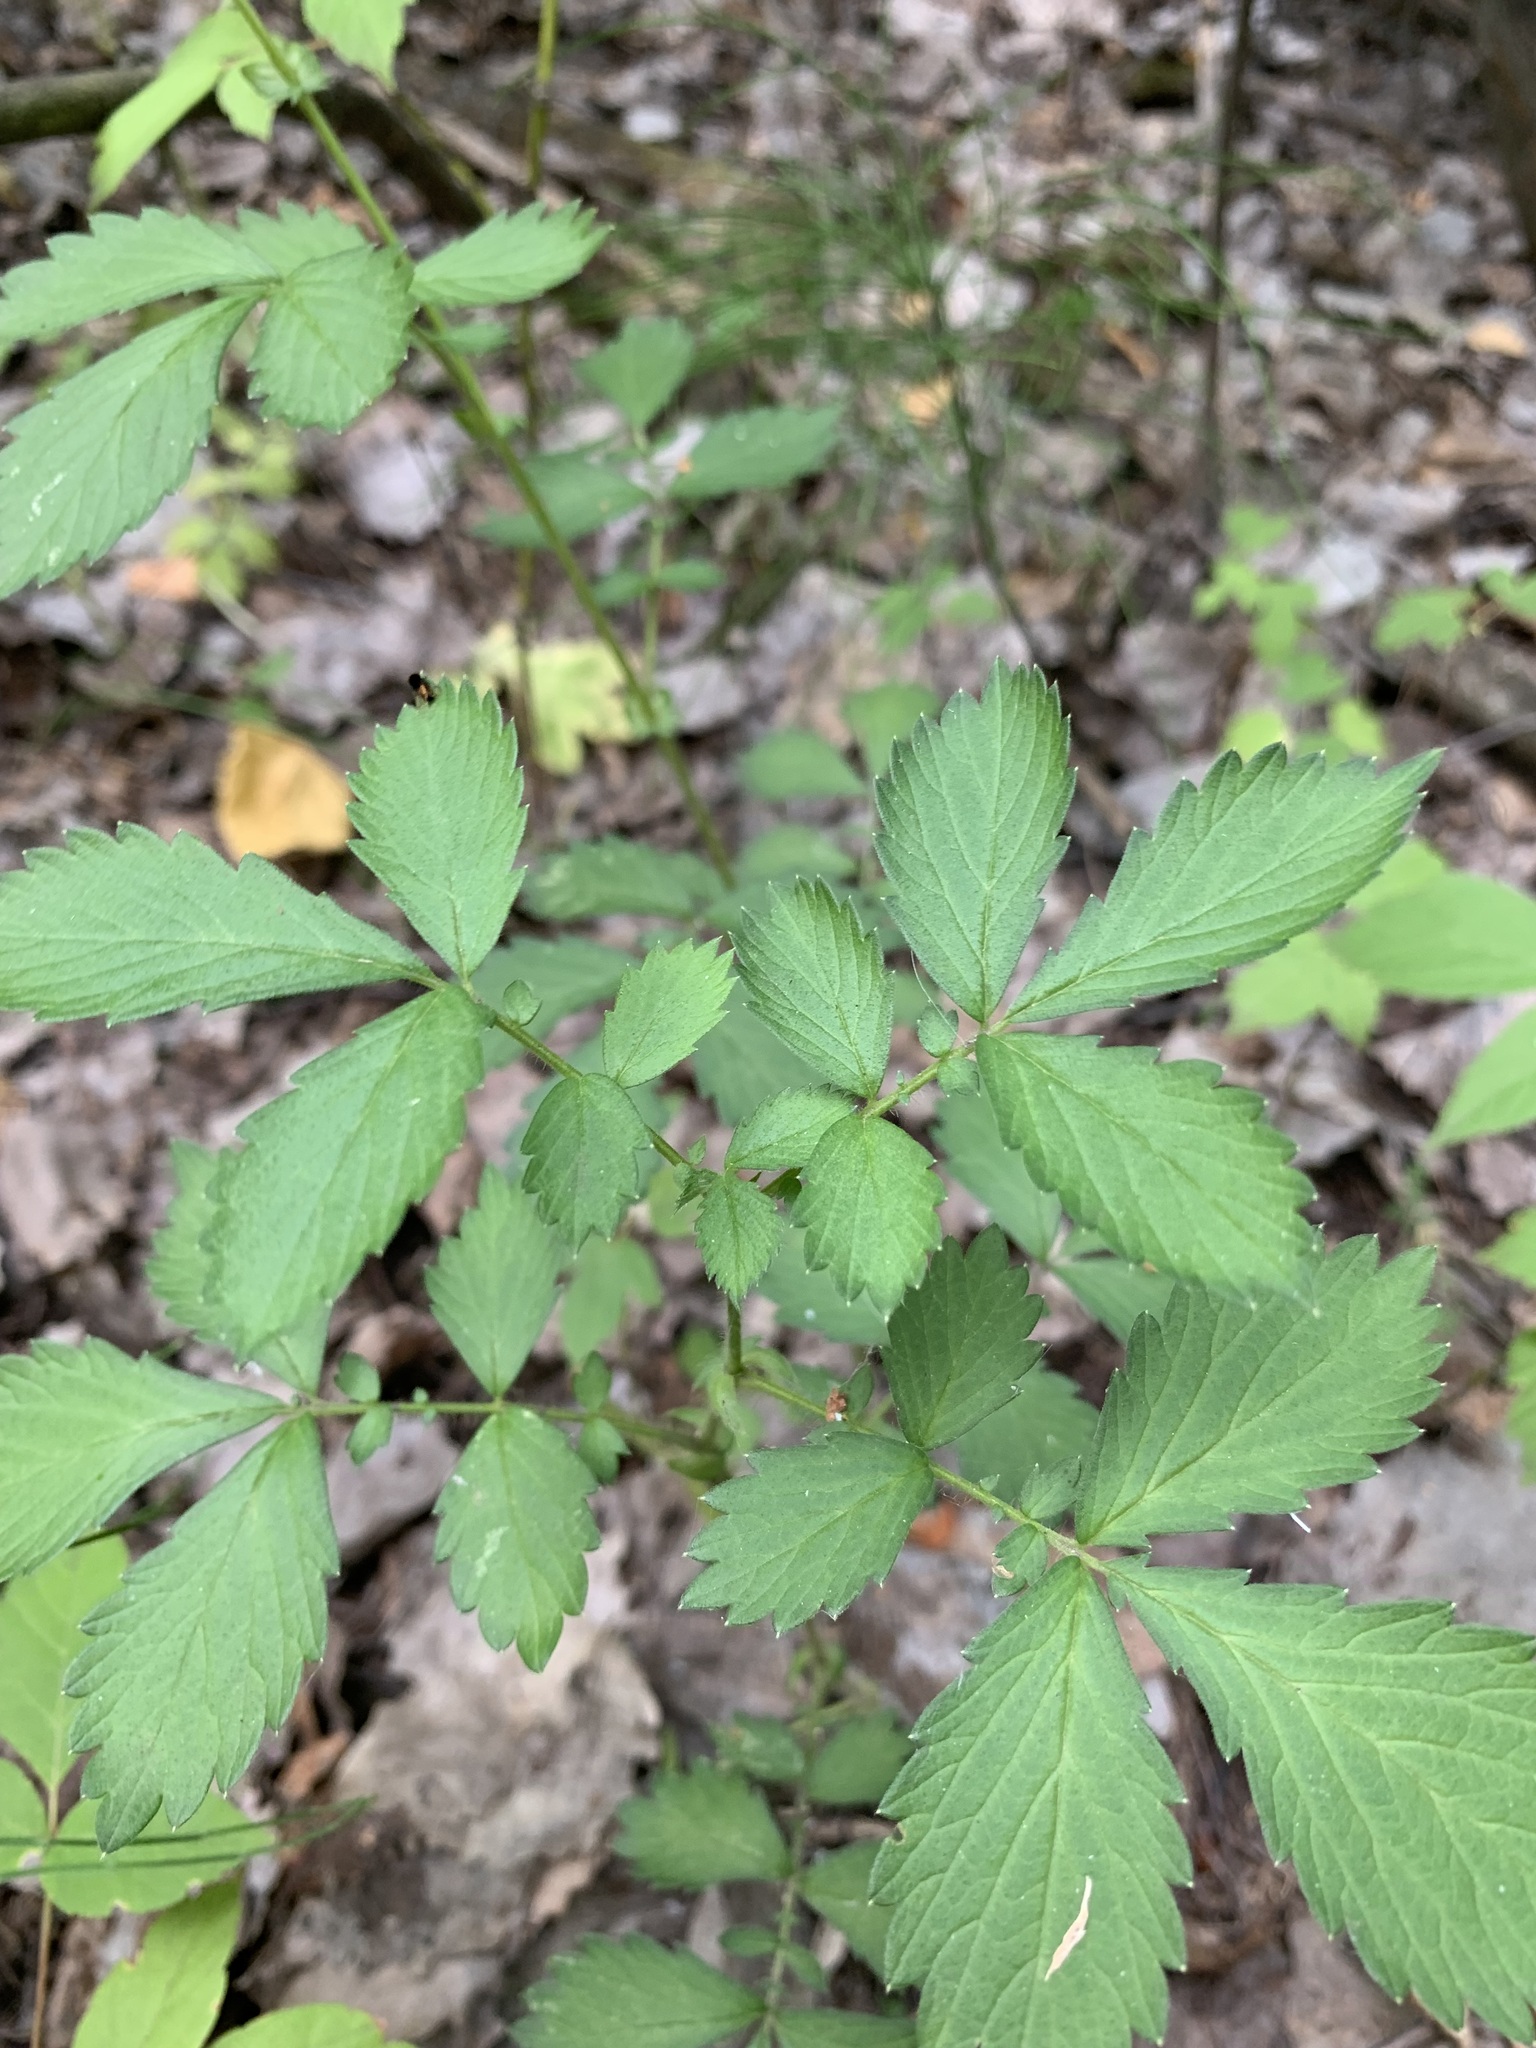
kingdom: Plantae
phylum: Tracheophyta
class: Magnoliopsida
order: Rosales
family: Rosaceae
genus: Agrimonia
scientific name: Agrimonia pilosa
